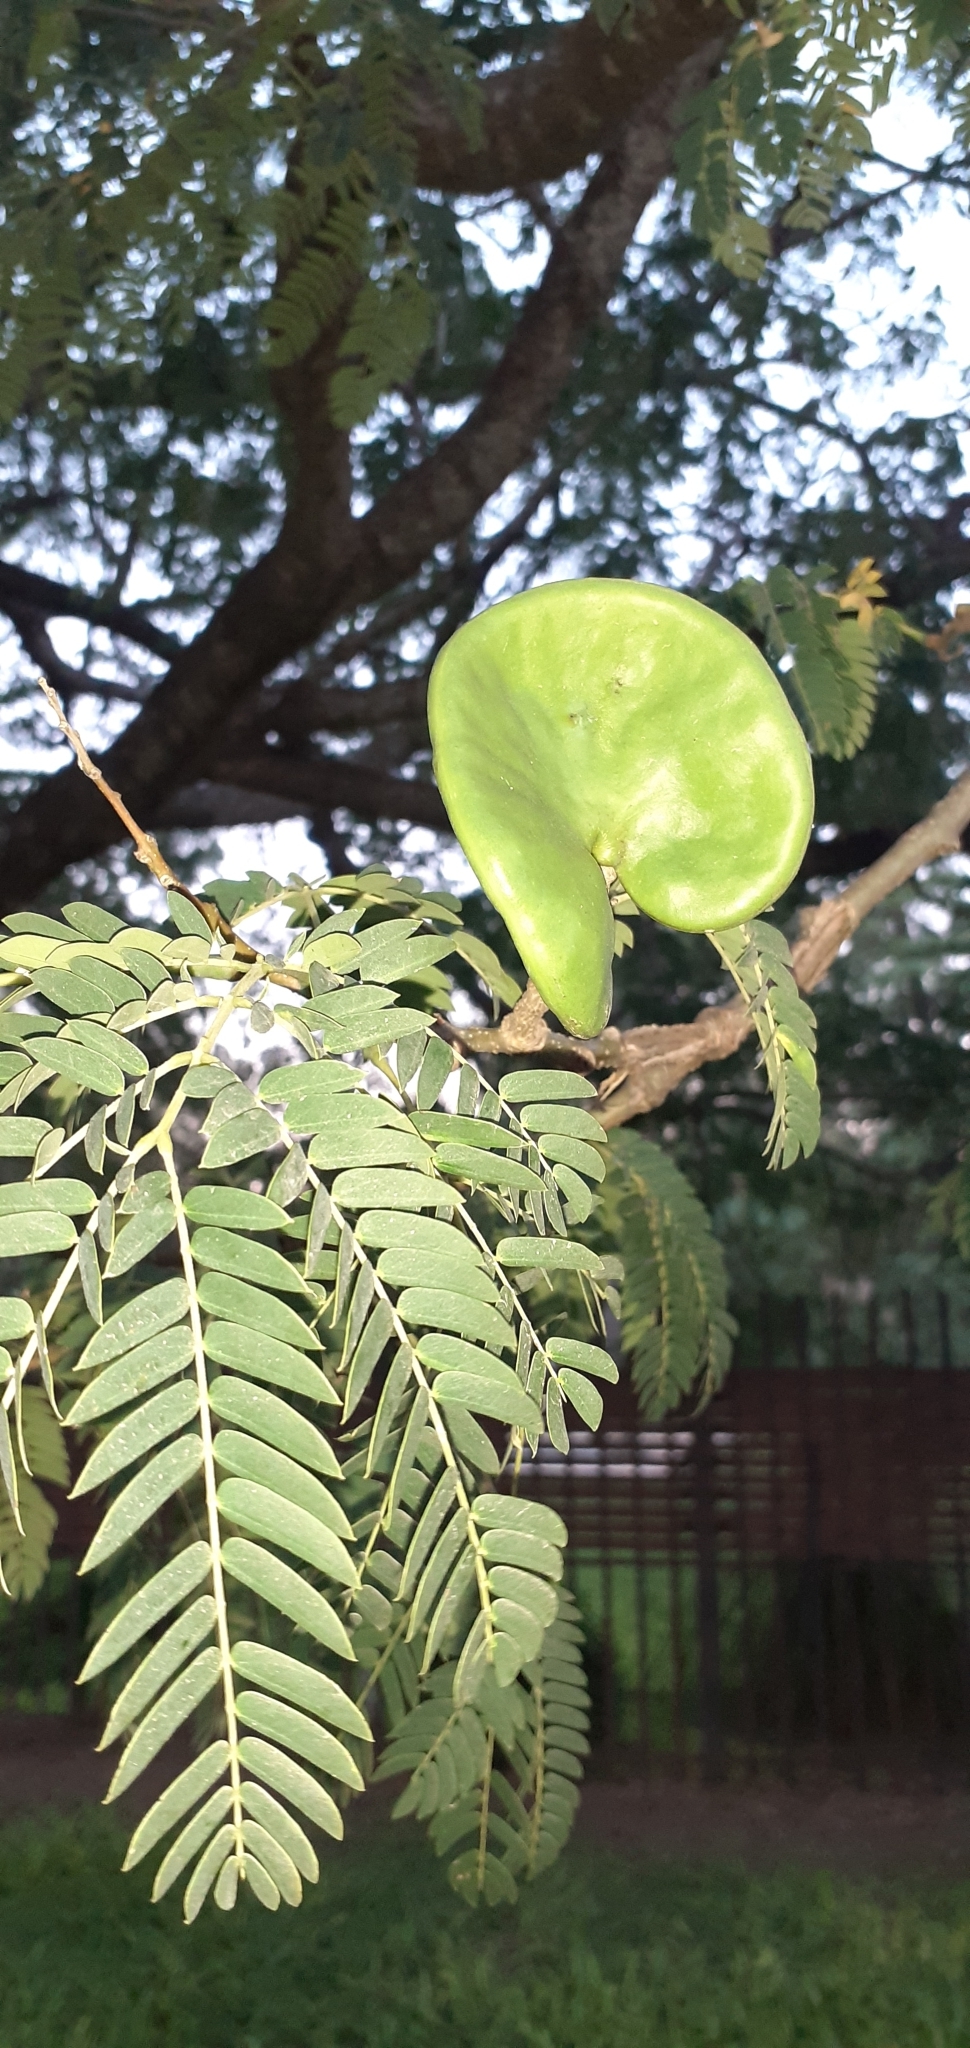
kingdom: Plantae
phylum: Tracheophyta
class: Magnoliopsida
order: Fabales
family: Fabaceae
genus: Enterolobium
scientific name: Enterolobium contortisiliquum
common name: Pacara earpod tree
